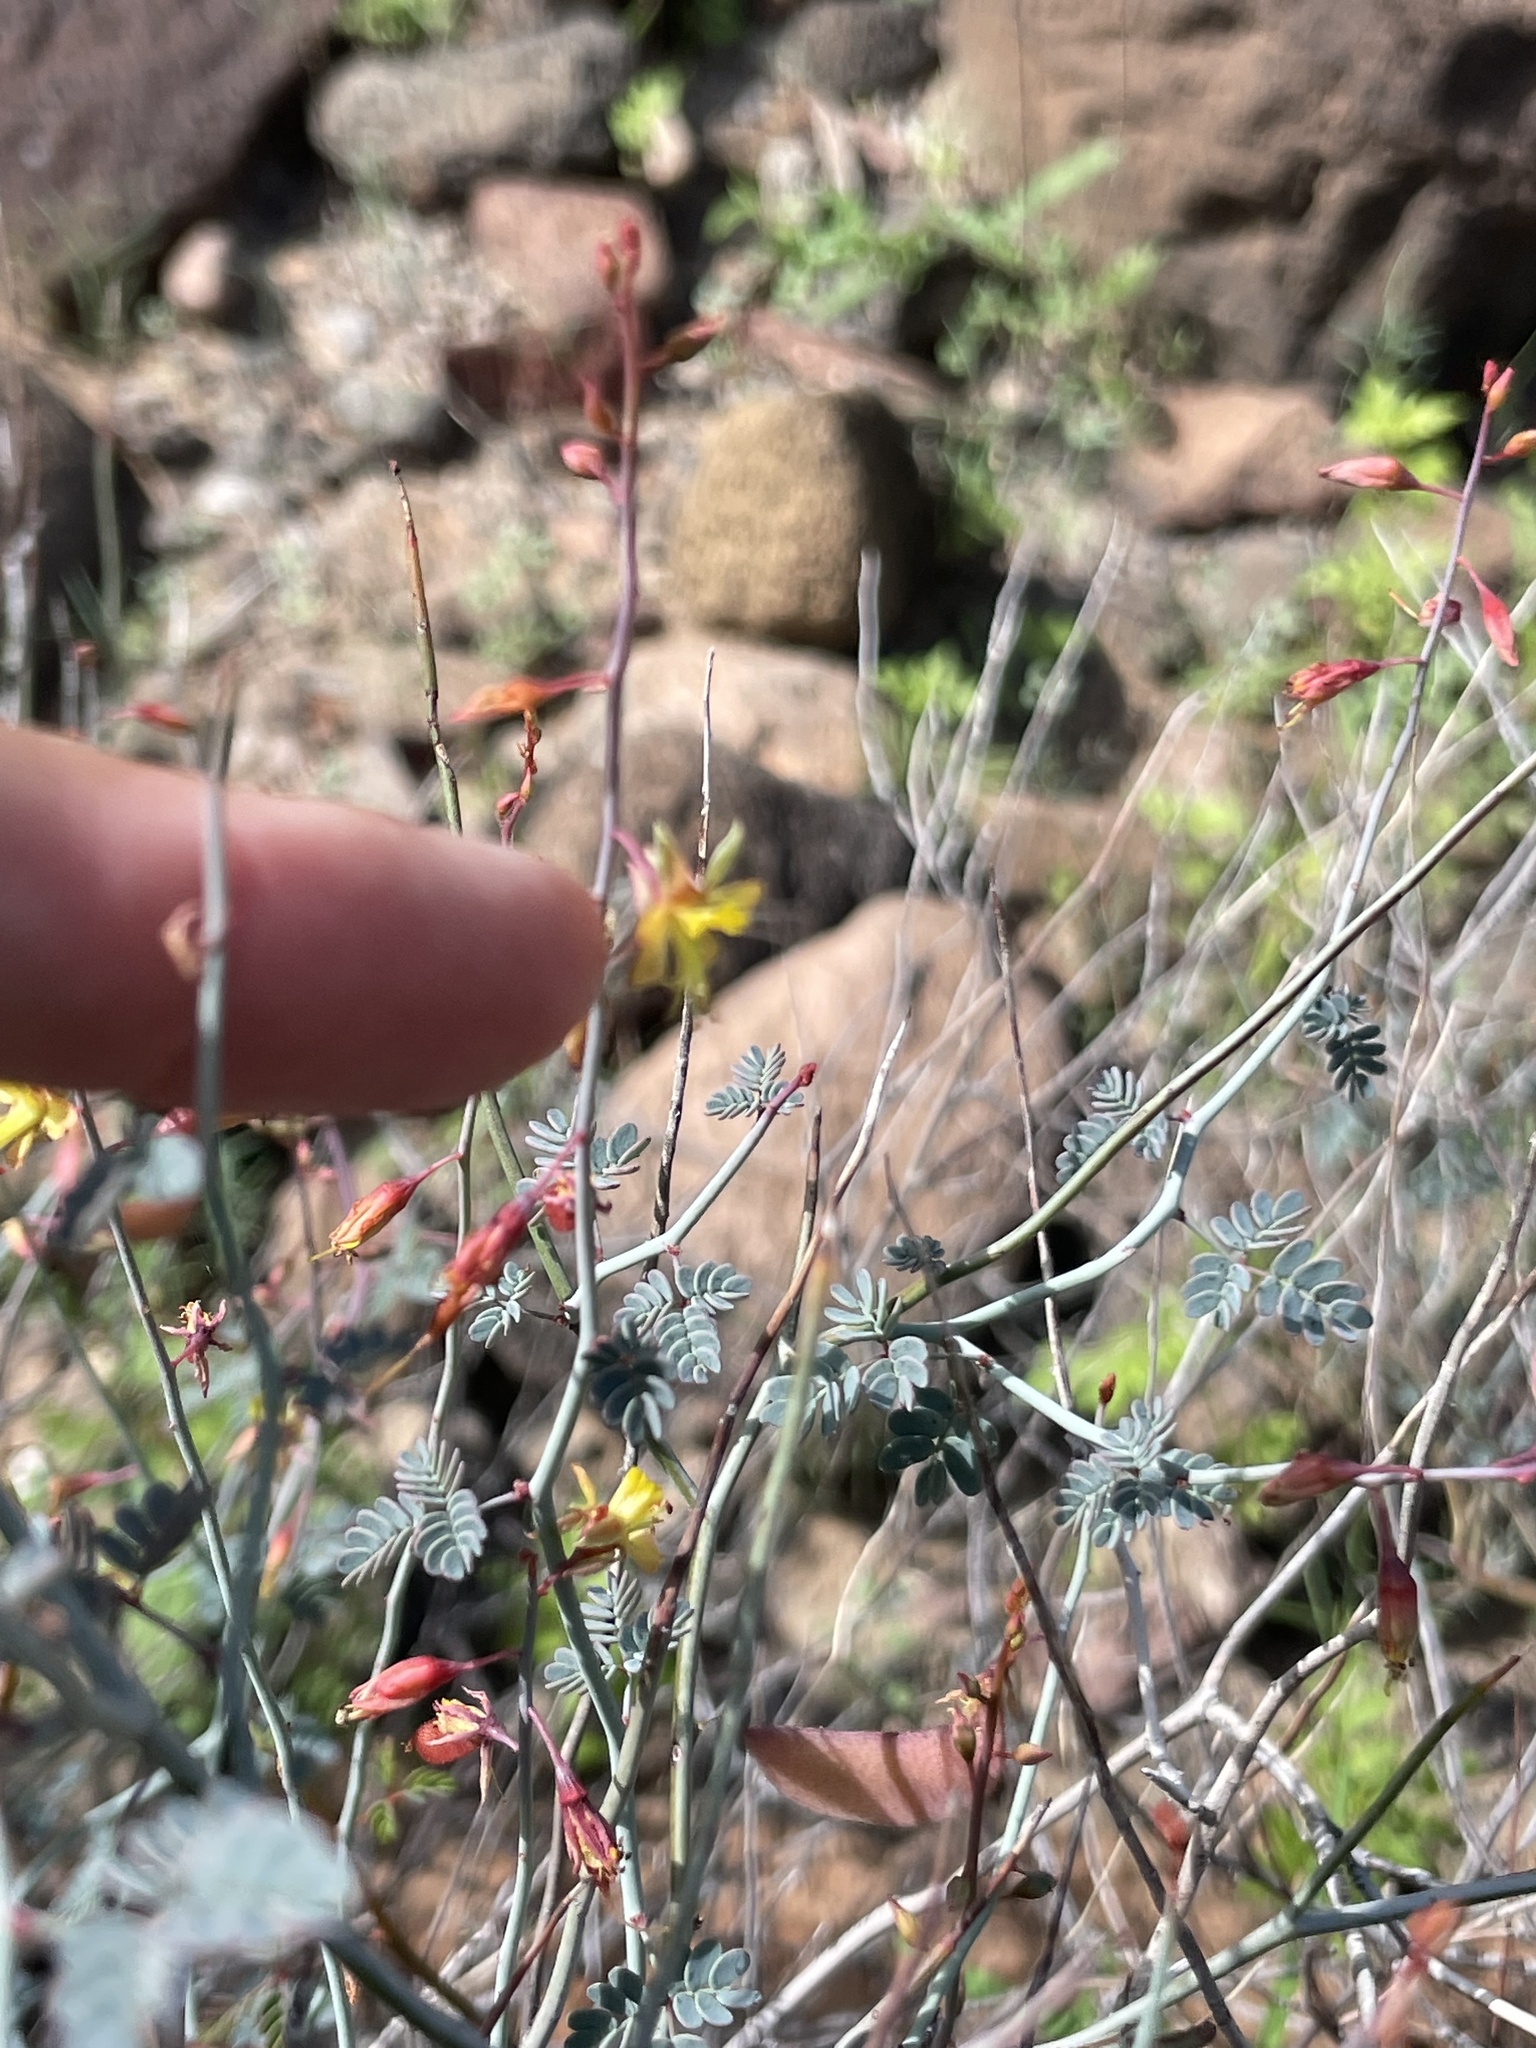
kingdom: Plantae
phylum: Tracheophyta
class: Magnoliopsida
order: Fabales
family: Fabaceae
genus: Hoffmannseggia
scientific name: Hoffmannseggia intricata
